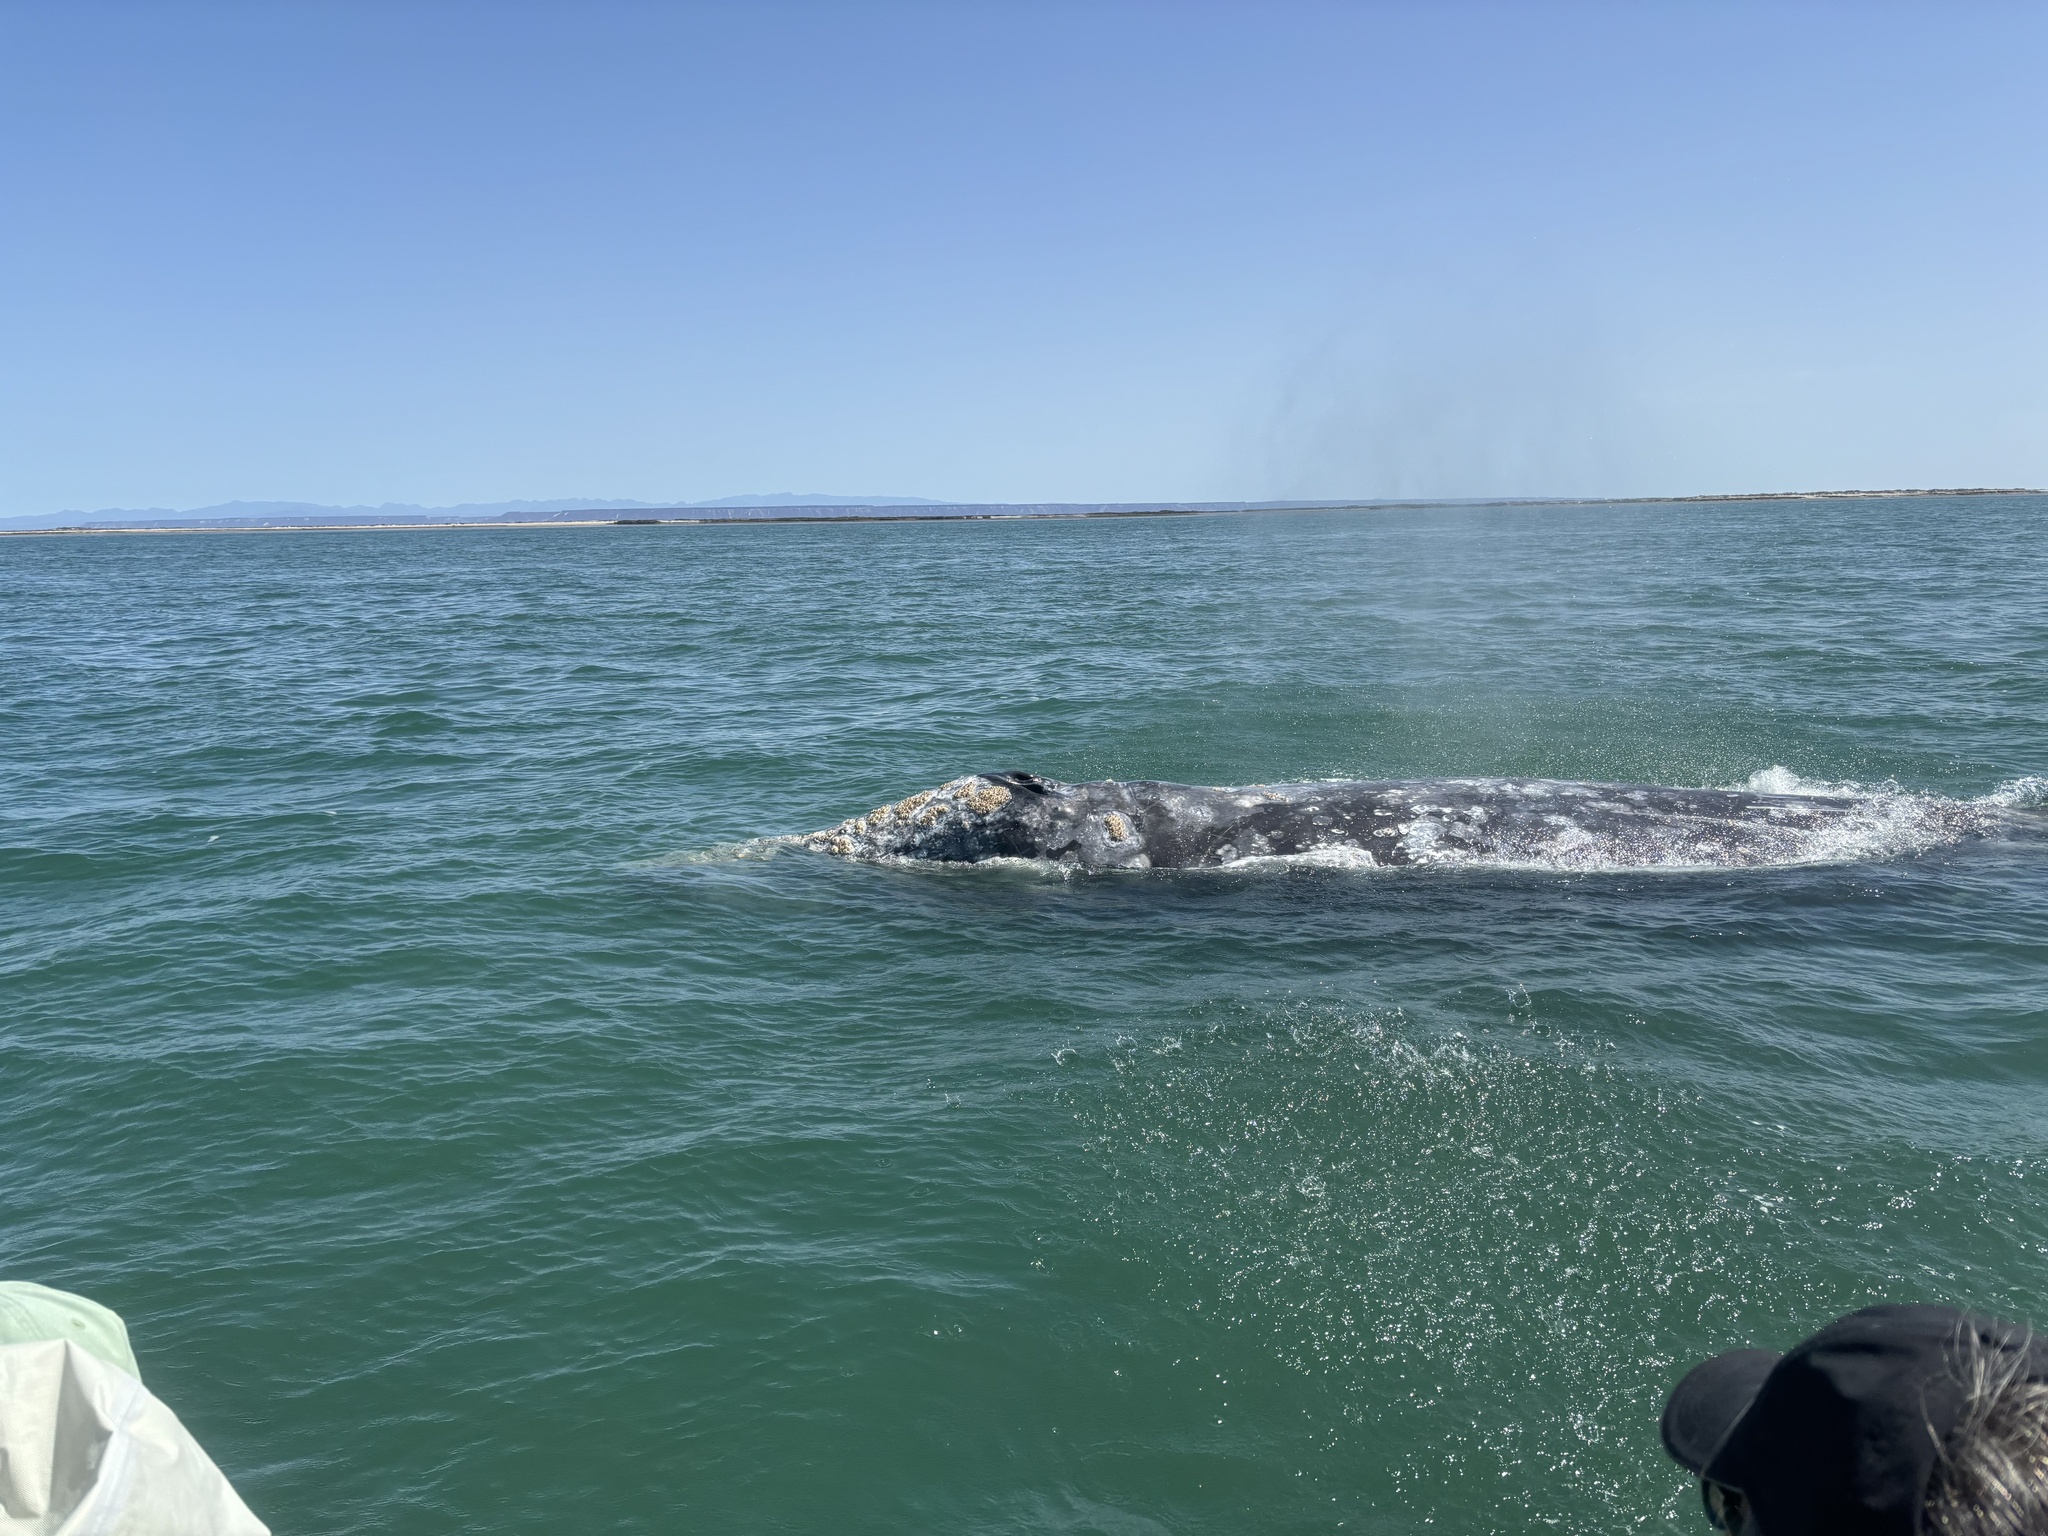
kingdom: Animalia
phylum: Chordata
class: Mammalia
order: Cetacea
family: Eschrichtiidae
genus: Eschrichtius
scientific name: Eschrichtius robustus
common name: Gray whale
